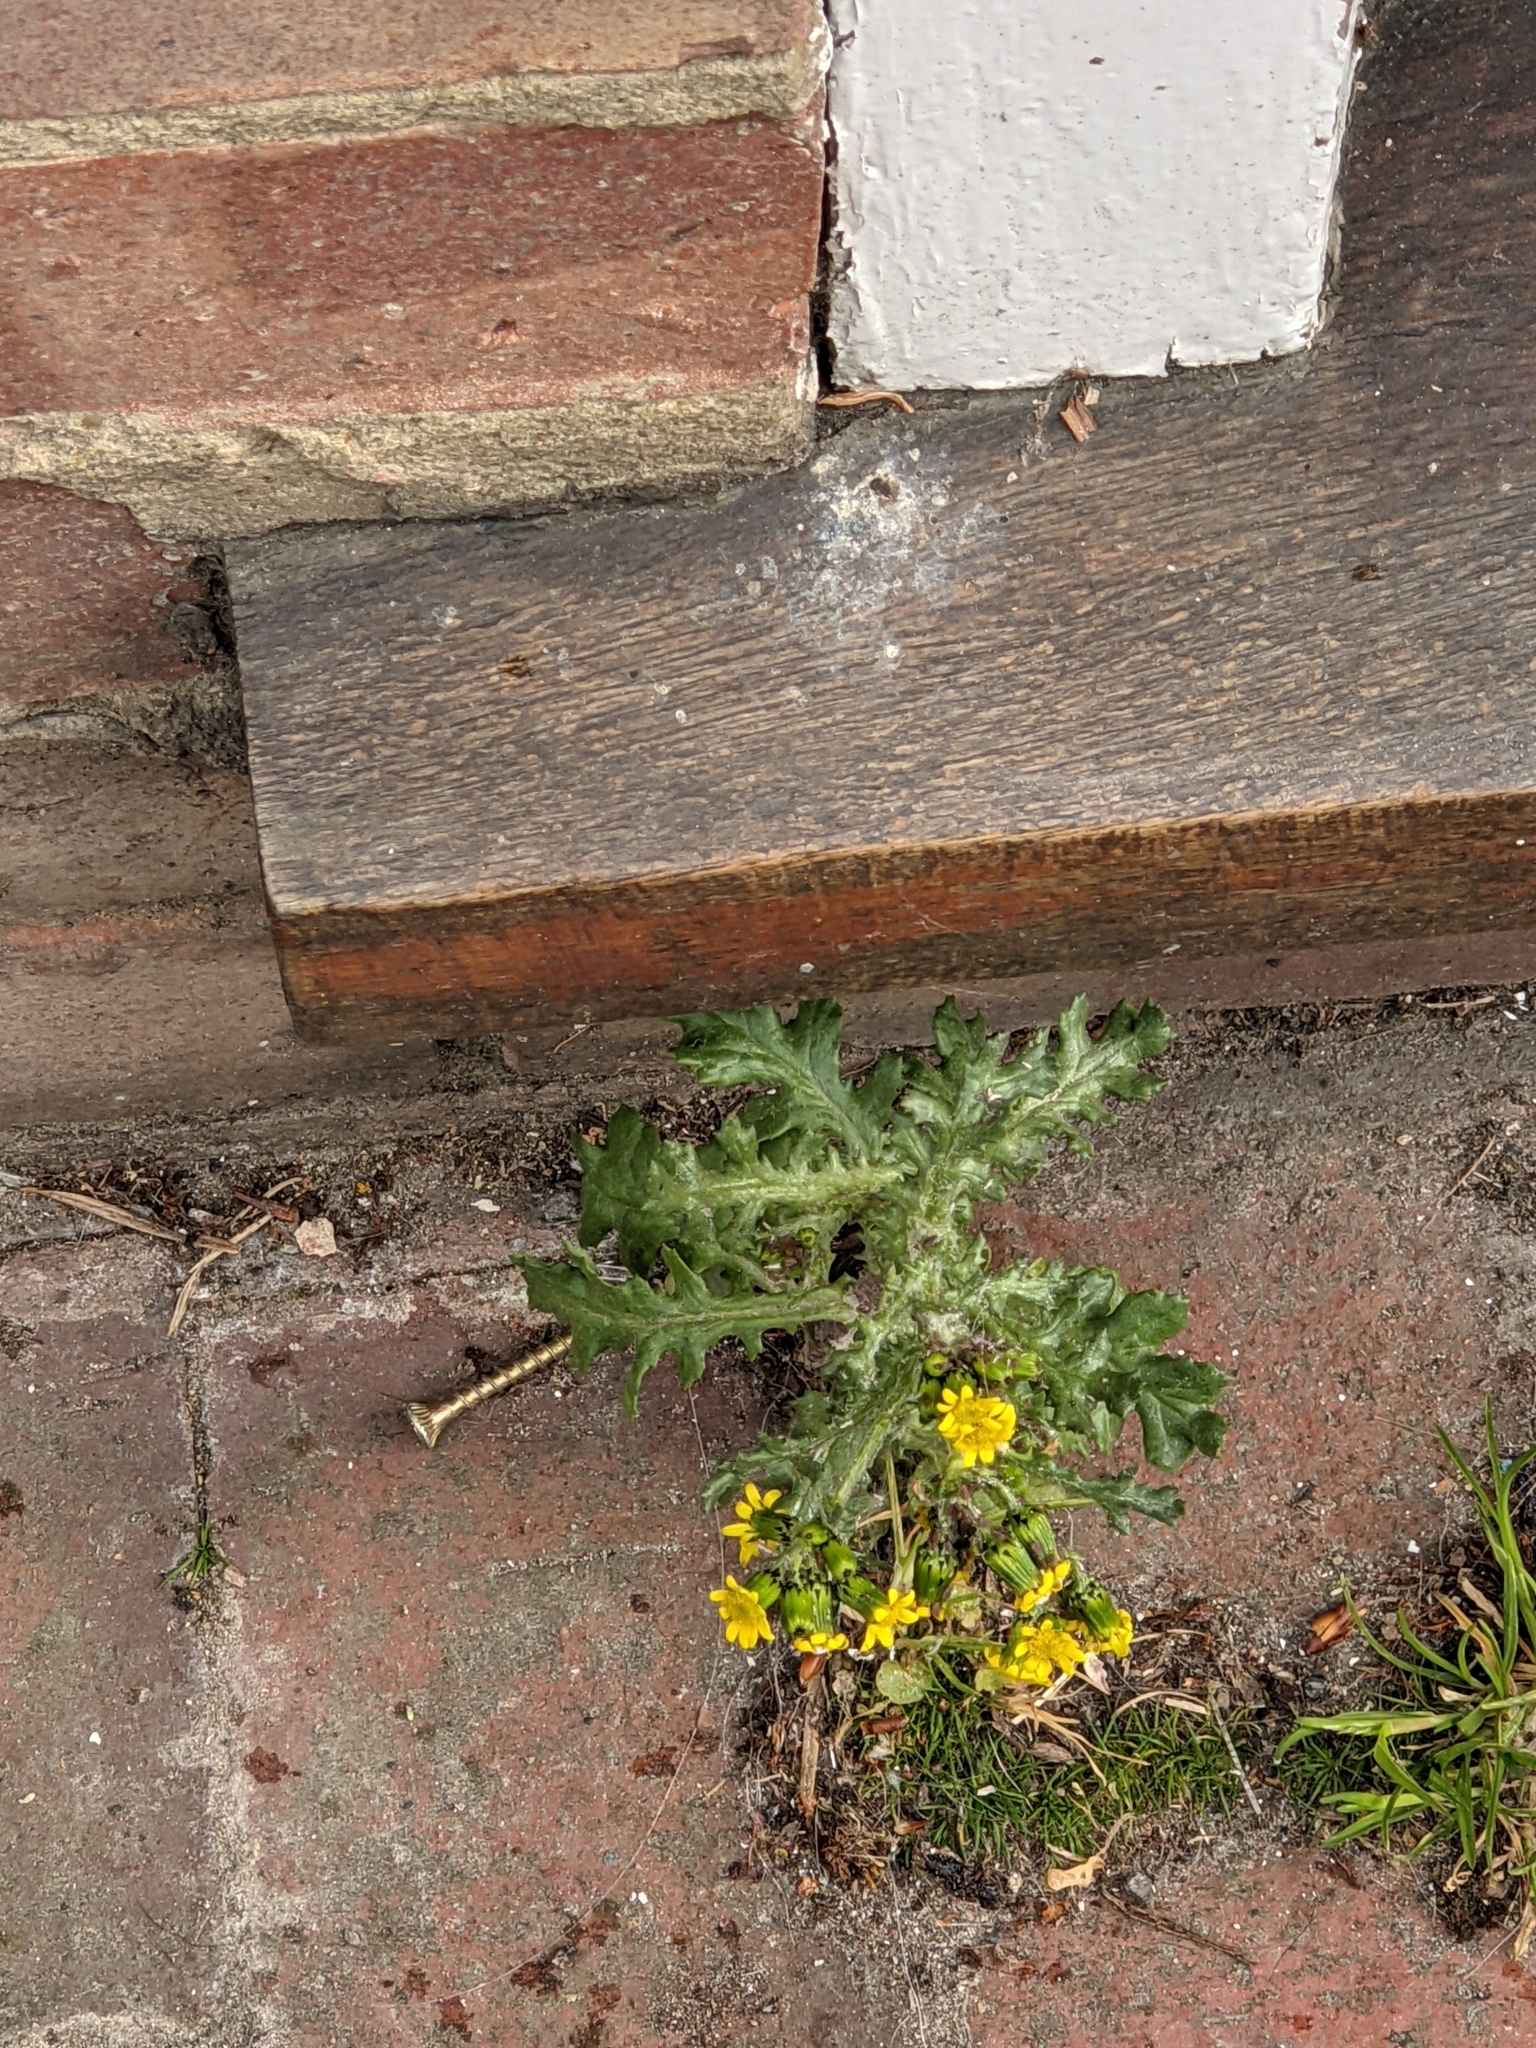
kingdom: Plantae
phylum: Tracheophyta
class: Magnoliopsida
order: Asterales
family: Asteraceae
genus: Senecio
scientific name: Senecio vulgaris
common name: Old-man-in-the-spring
